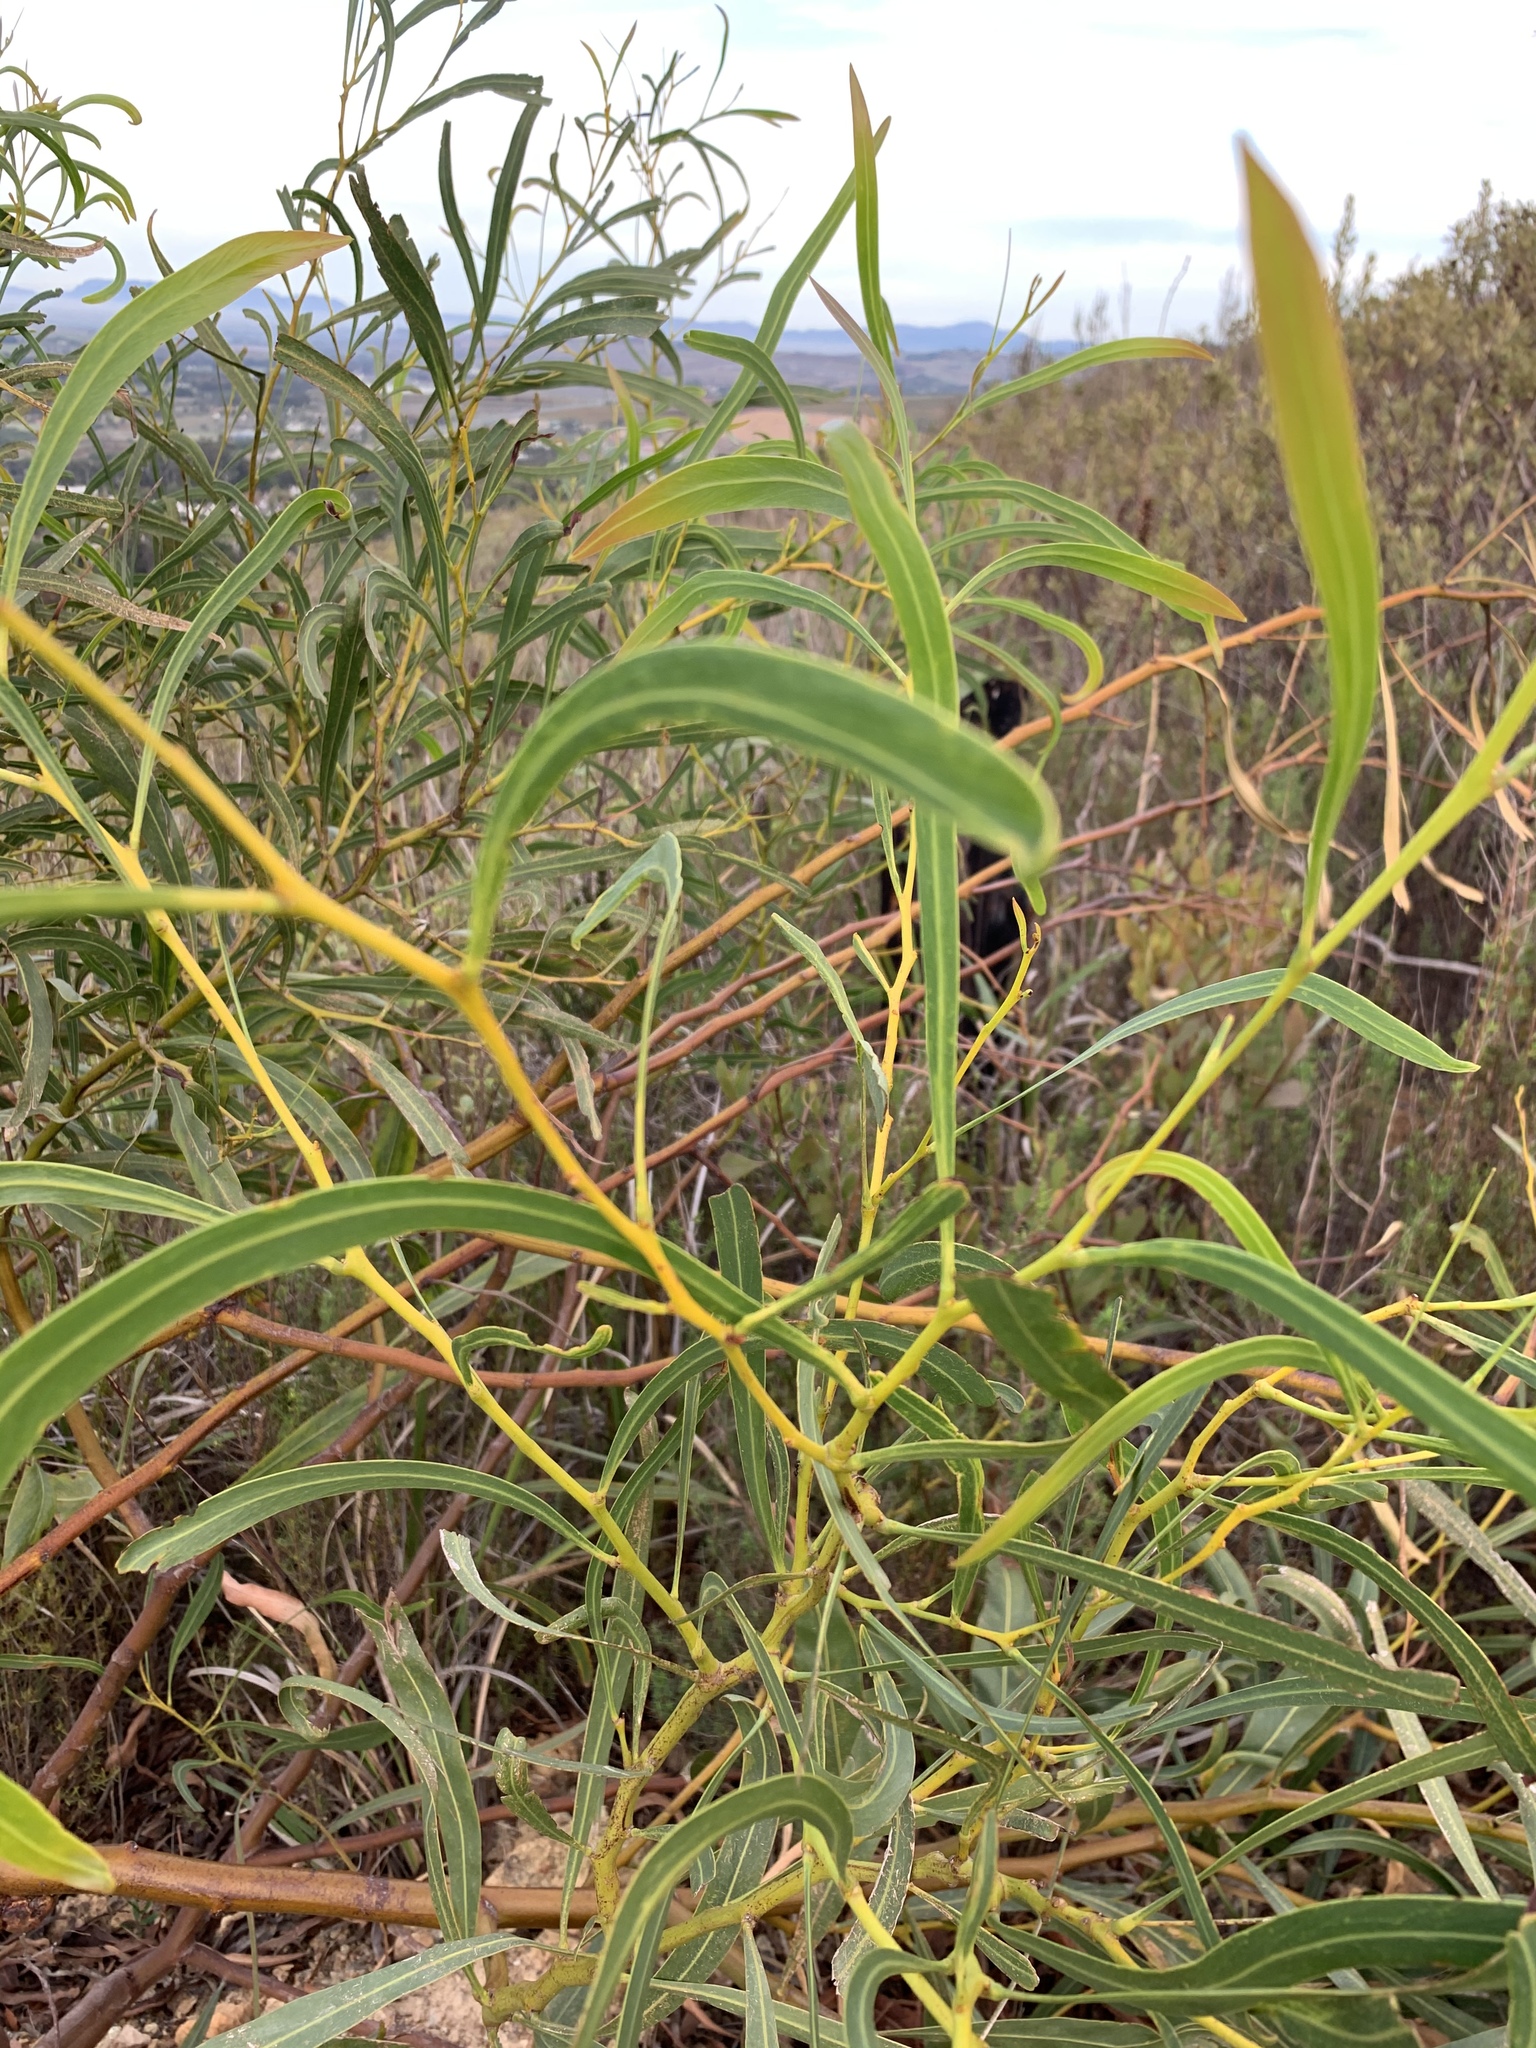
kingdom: Plantae
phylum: Tracheophyta
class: Magnoliopsida
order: Fabales
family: Fabaceae
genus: Acacia
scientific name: Acacia saligna
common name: Orange wattle
